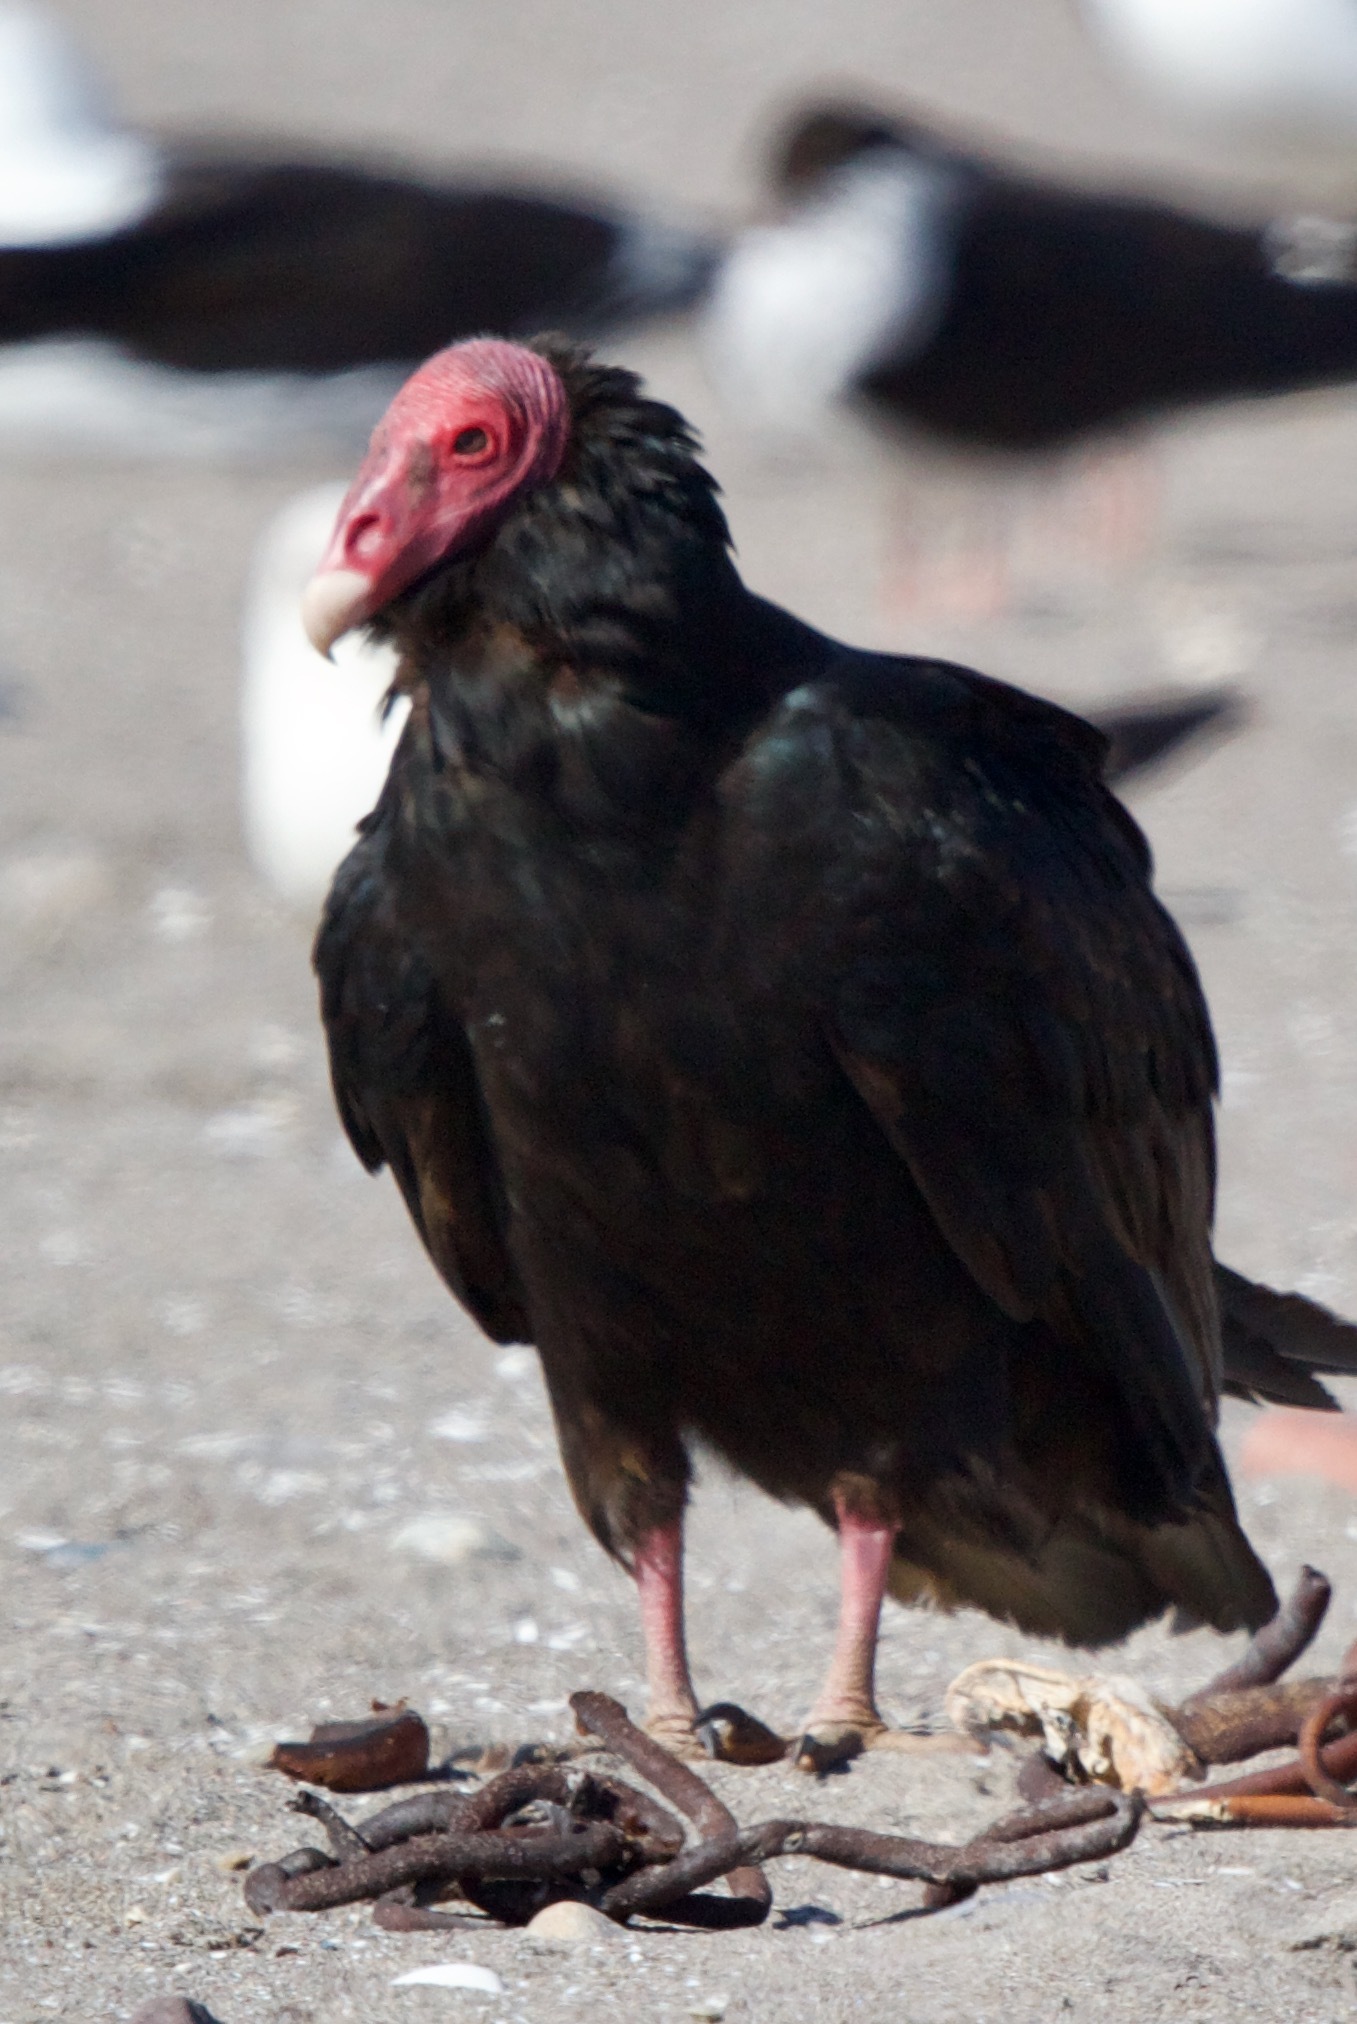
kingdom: Animalia
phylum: Chordata
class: Aves
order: Accipitriformes
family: Cathartidae
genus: Cathartes
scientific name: Cathartes aura
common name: Turkey vulture
